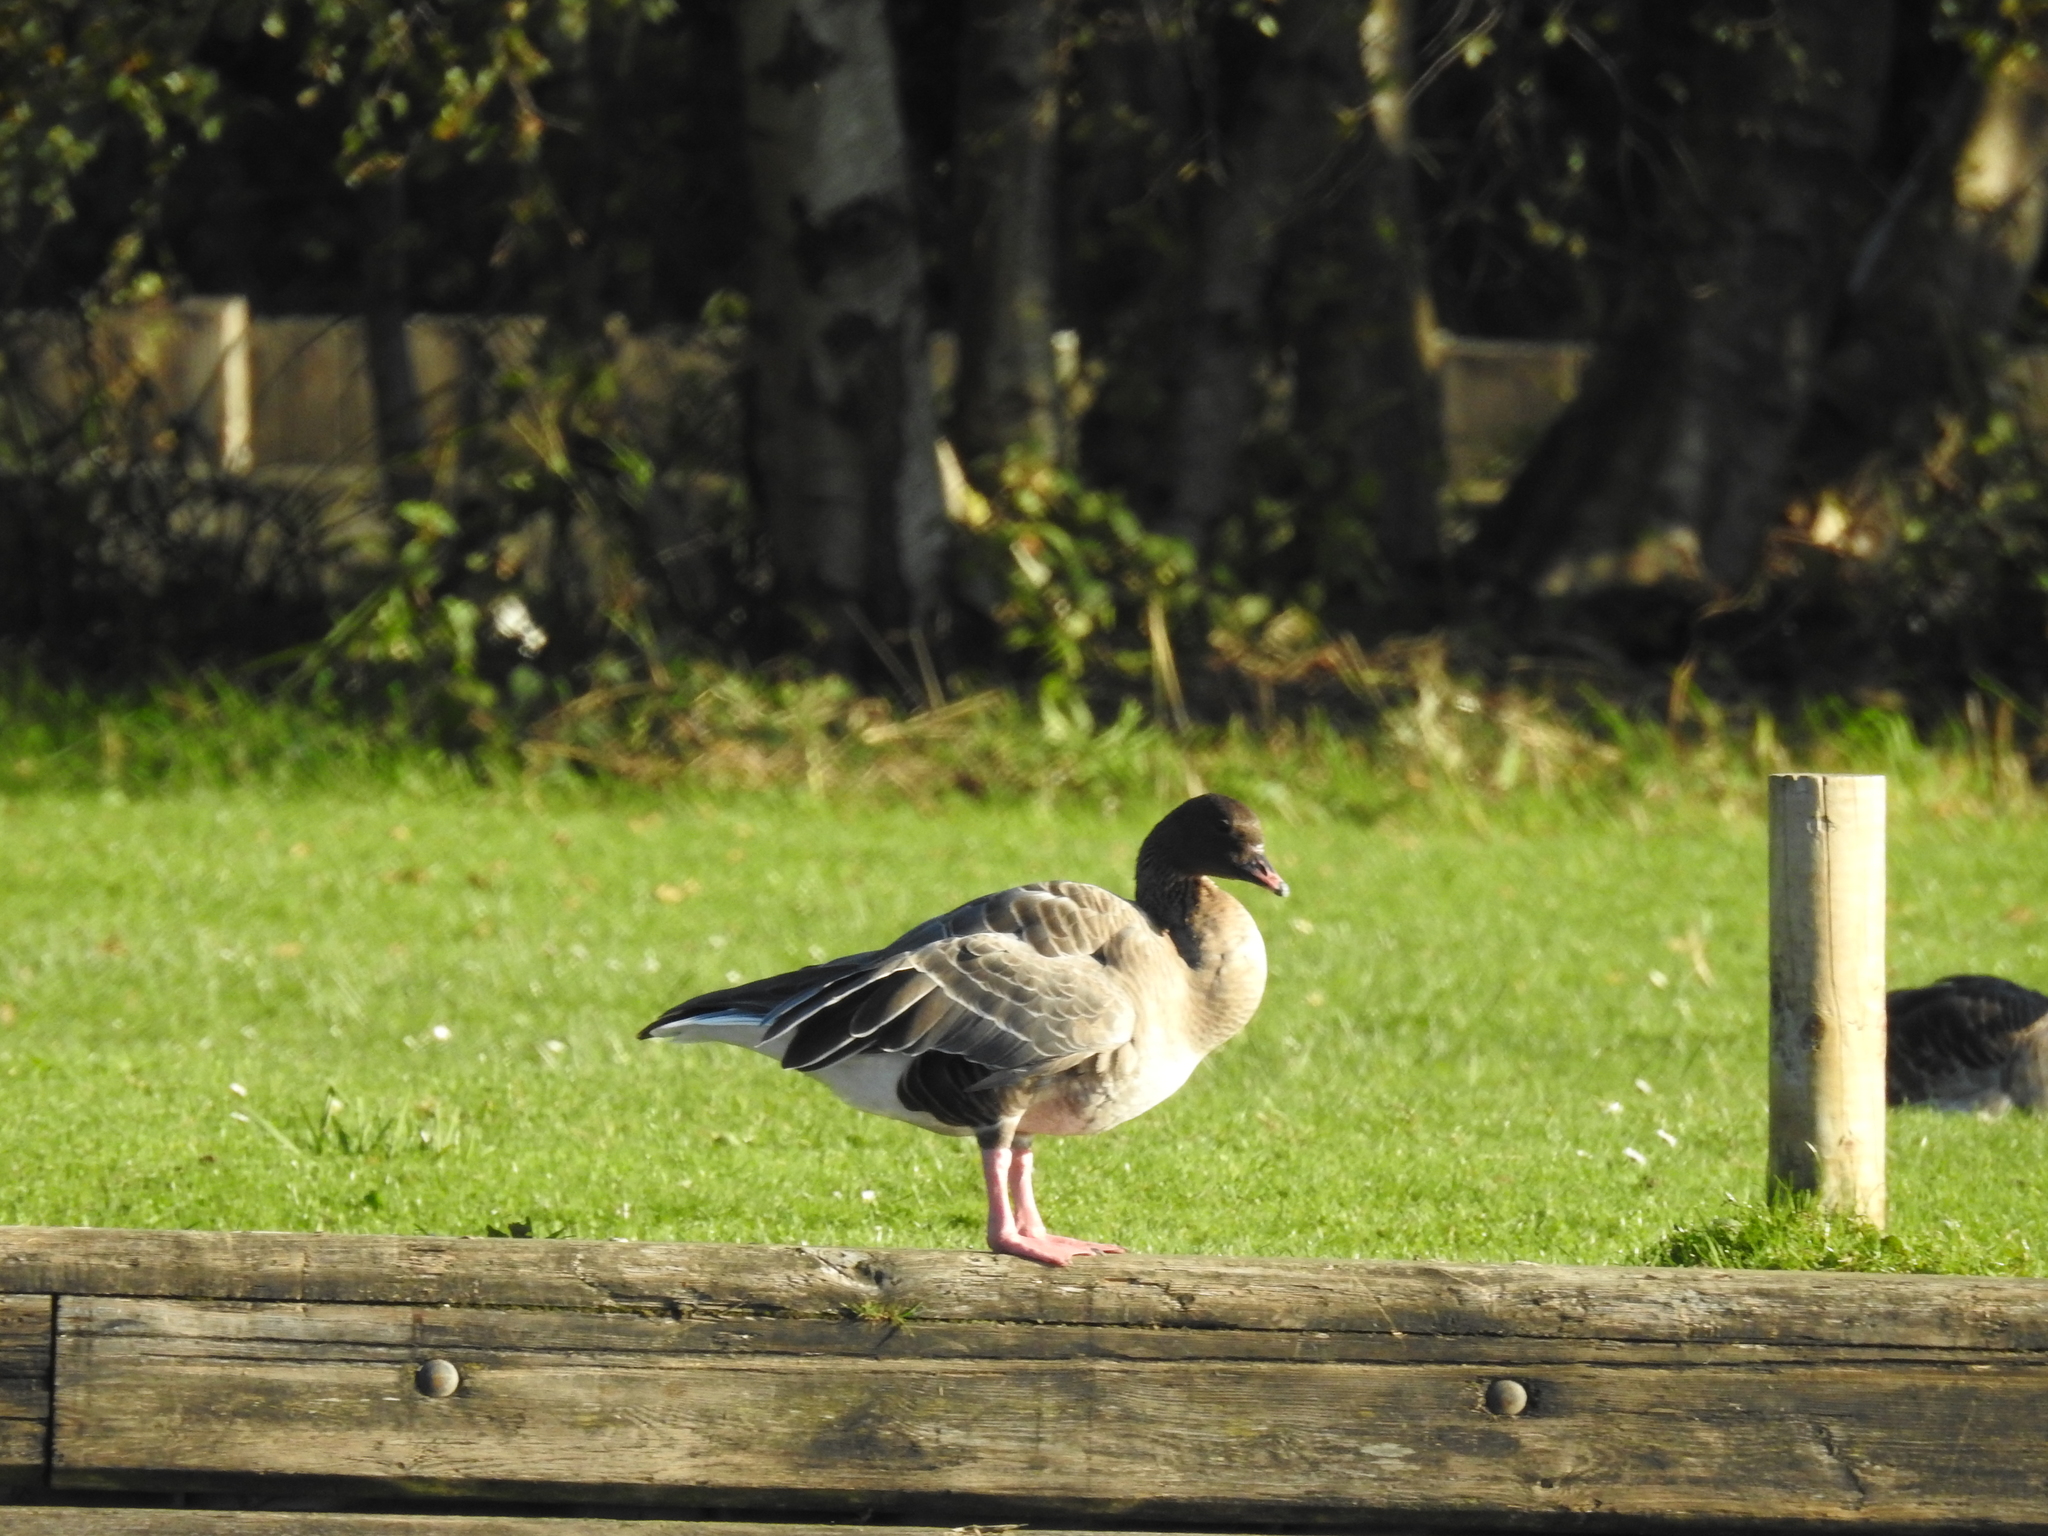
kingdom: Animalia
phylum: Chordata
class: Aves
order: Anseriformes
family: Anatidae
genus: Anser
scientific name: Anser brachyrhynchus
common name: Pink-footed goose
